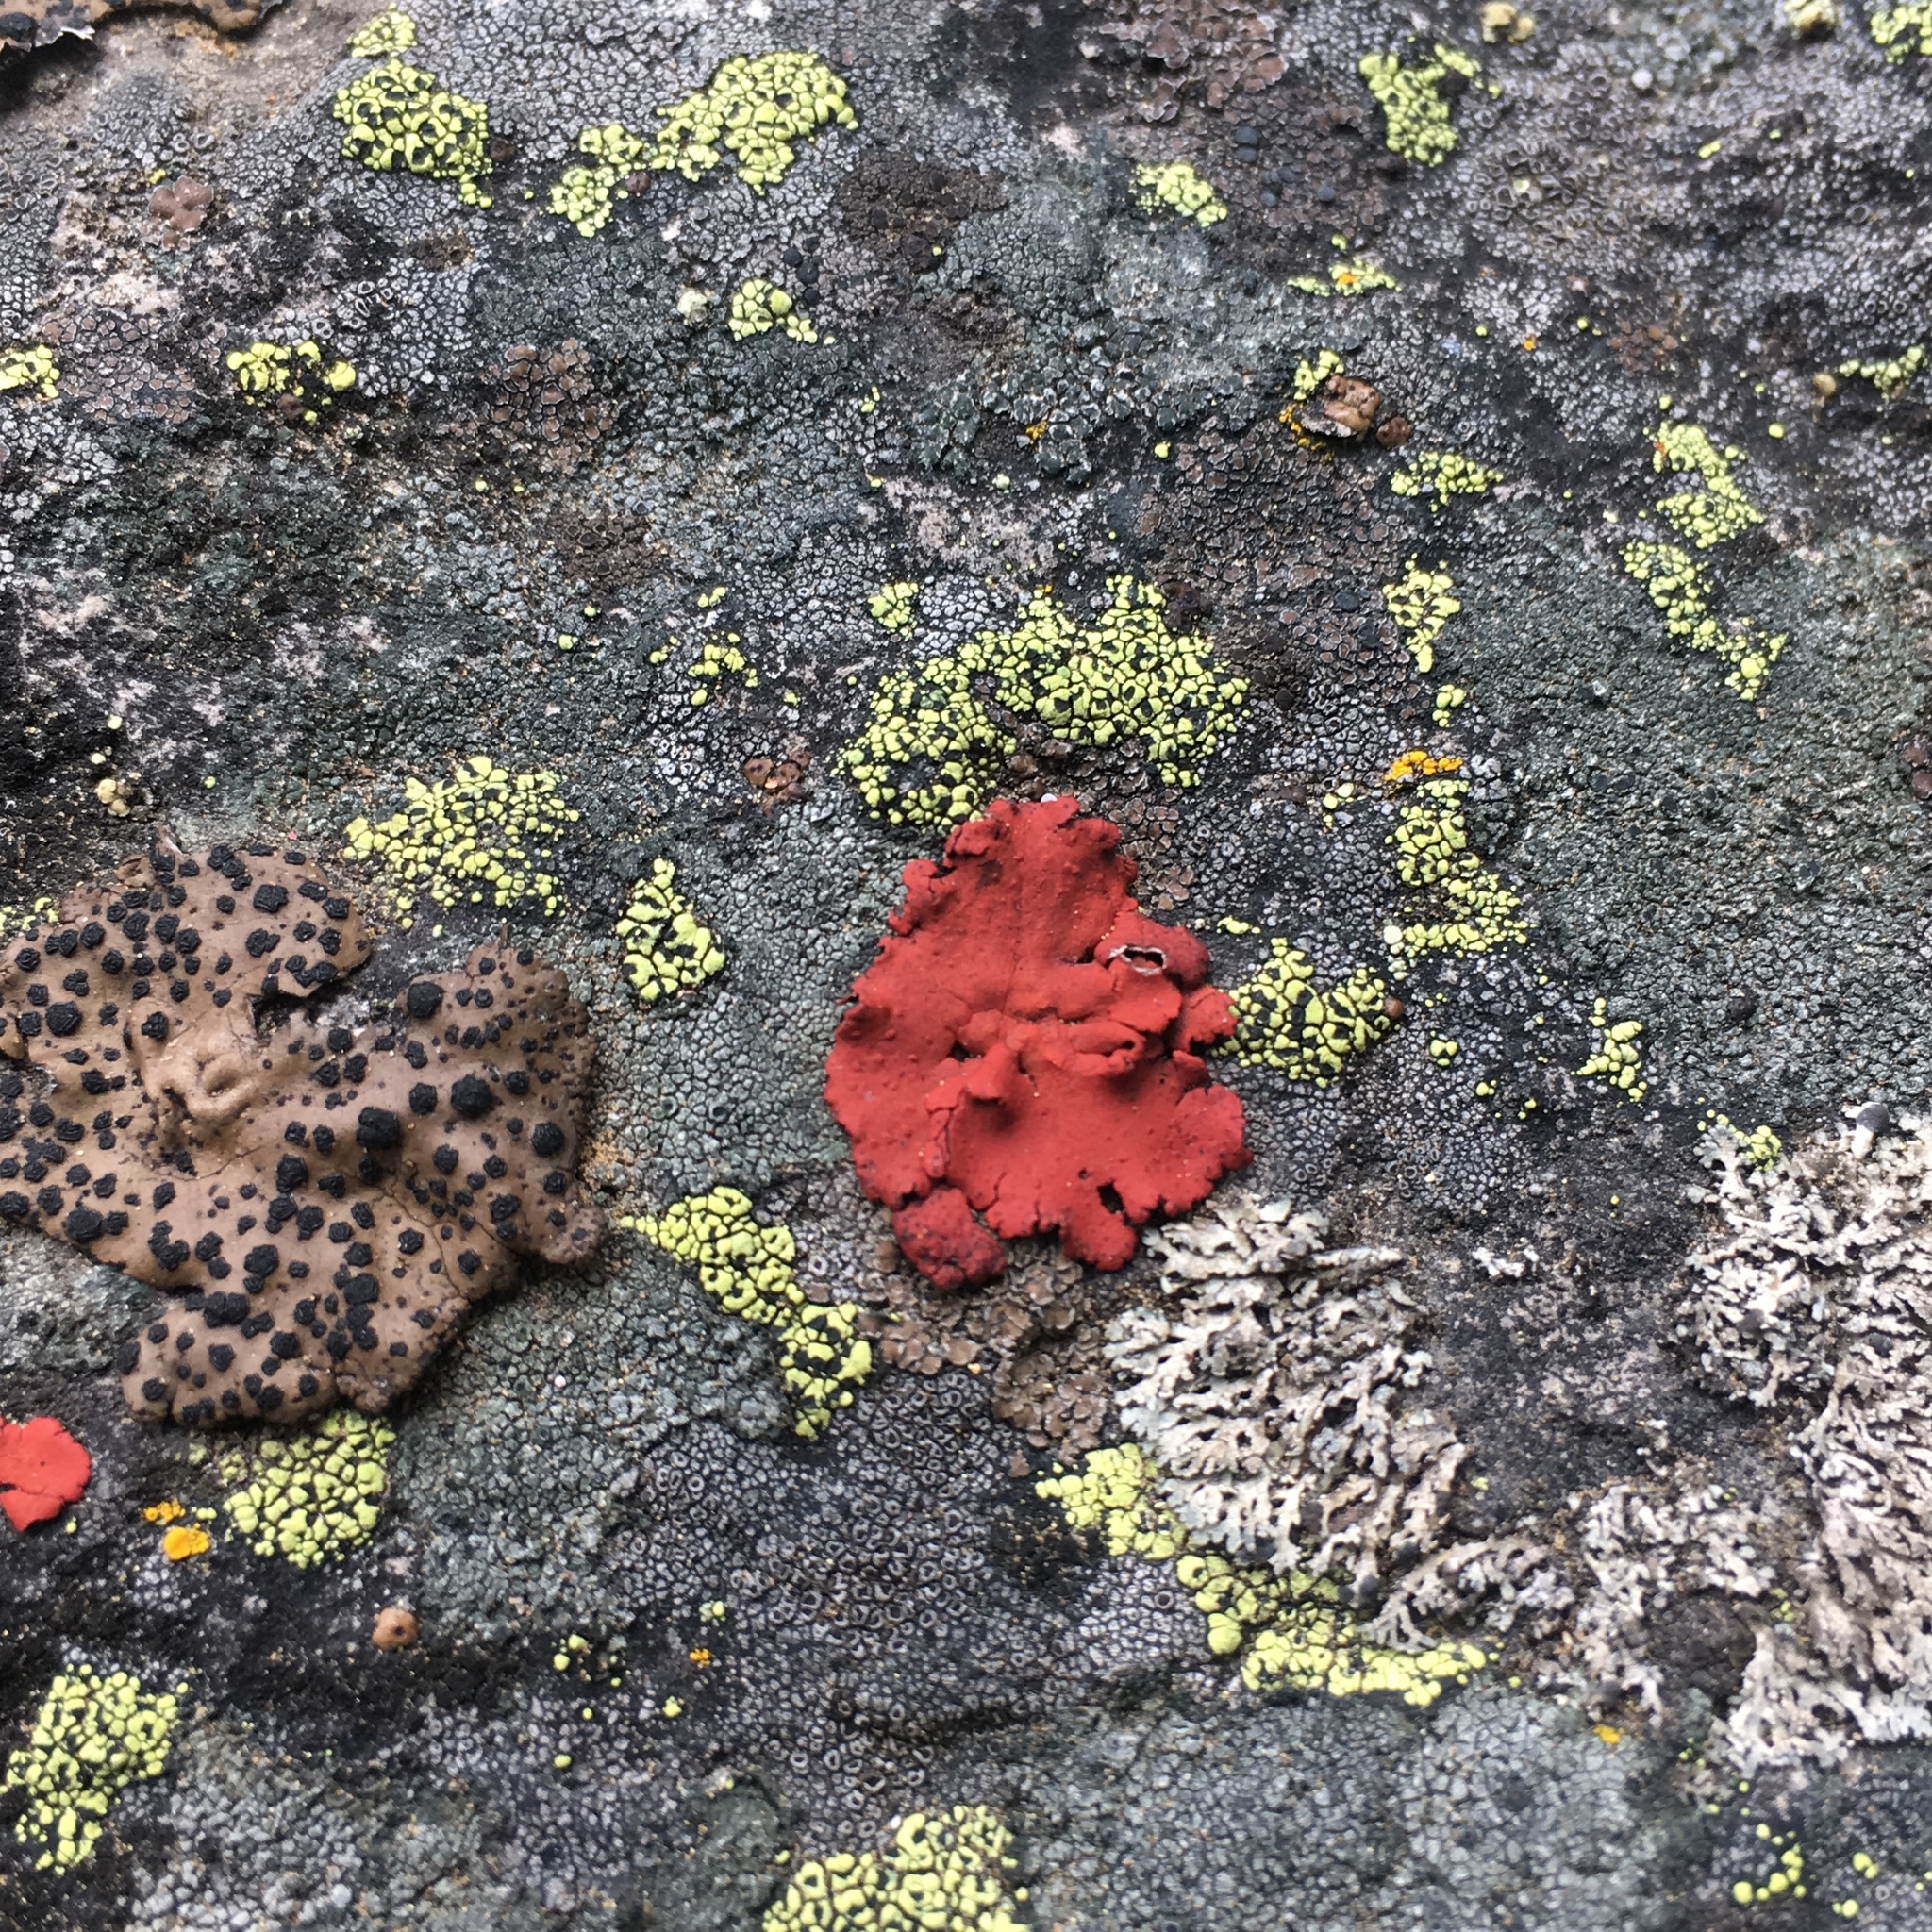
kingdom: Fungi
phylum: Ascomycota
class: Lecanoromycetes
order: Umbilicariales
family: Umbilicariaceae
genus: Umbilicaria
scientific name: Umbilicaria phaea
